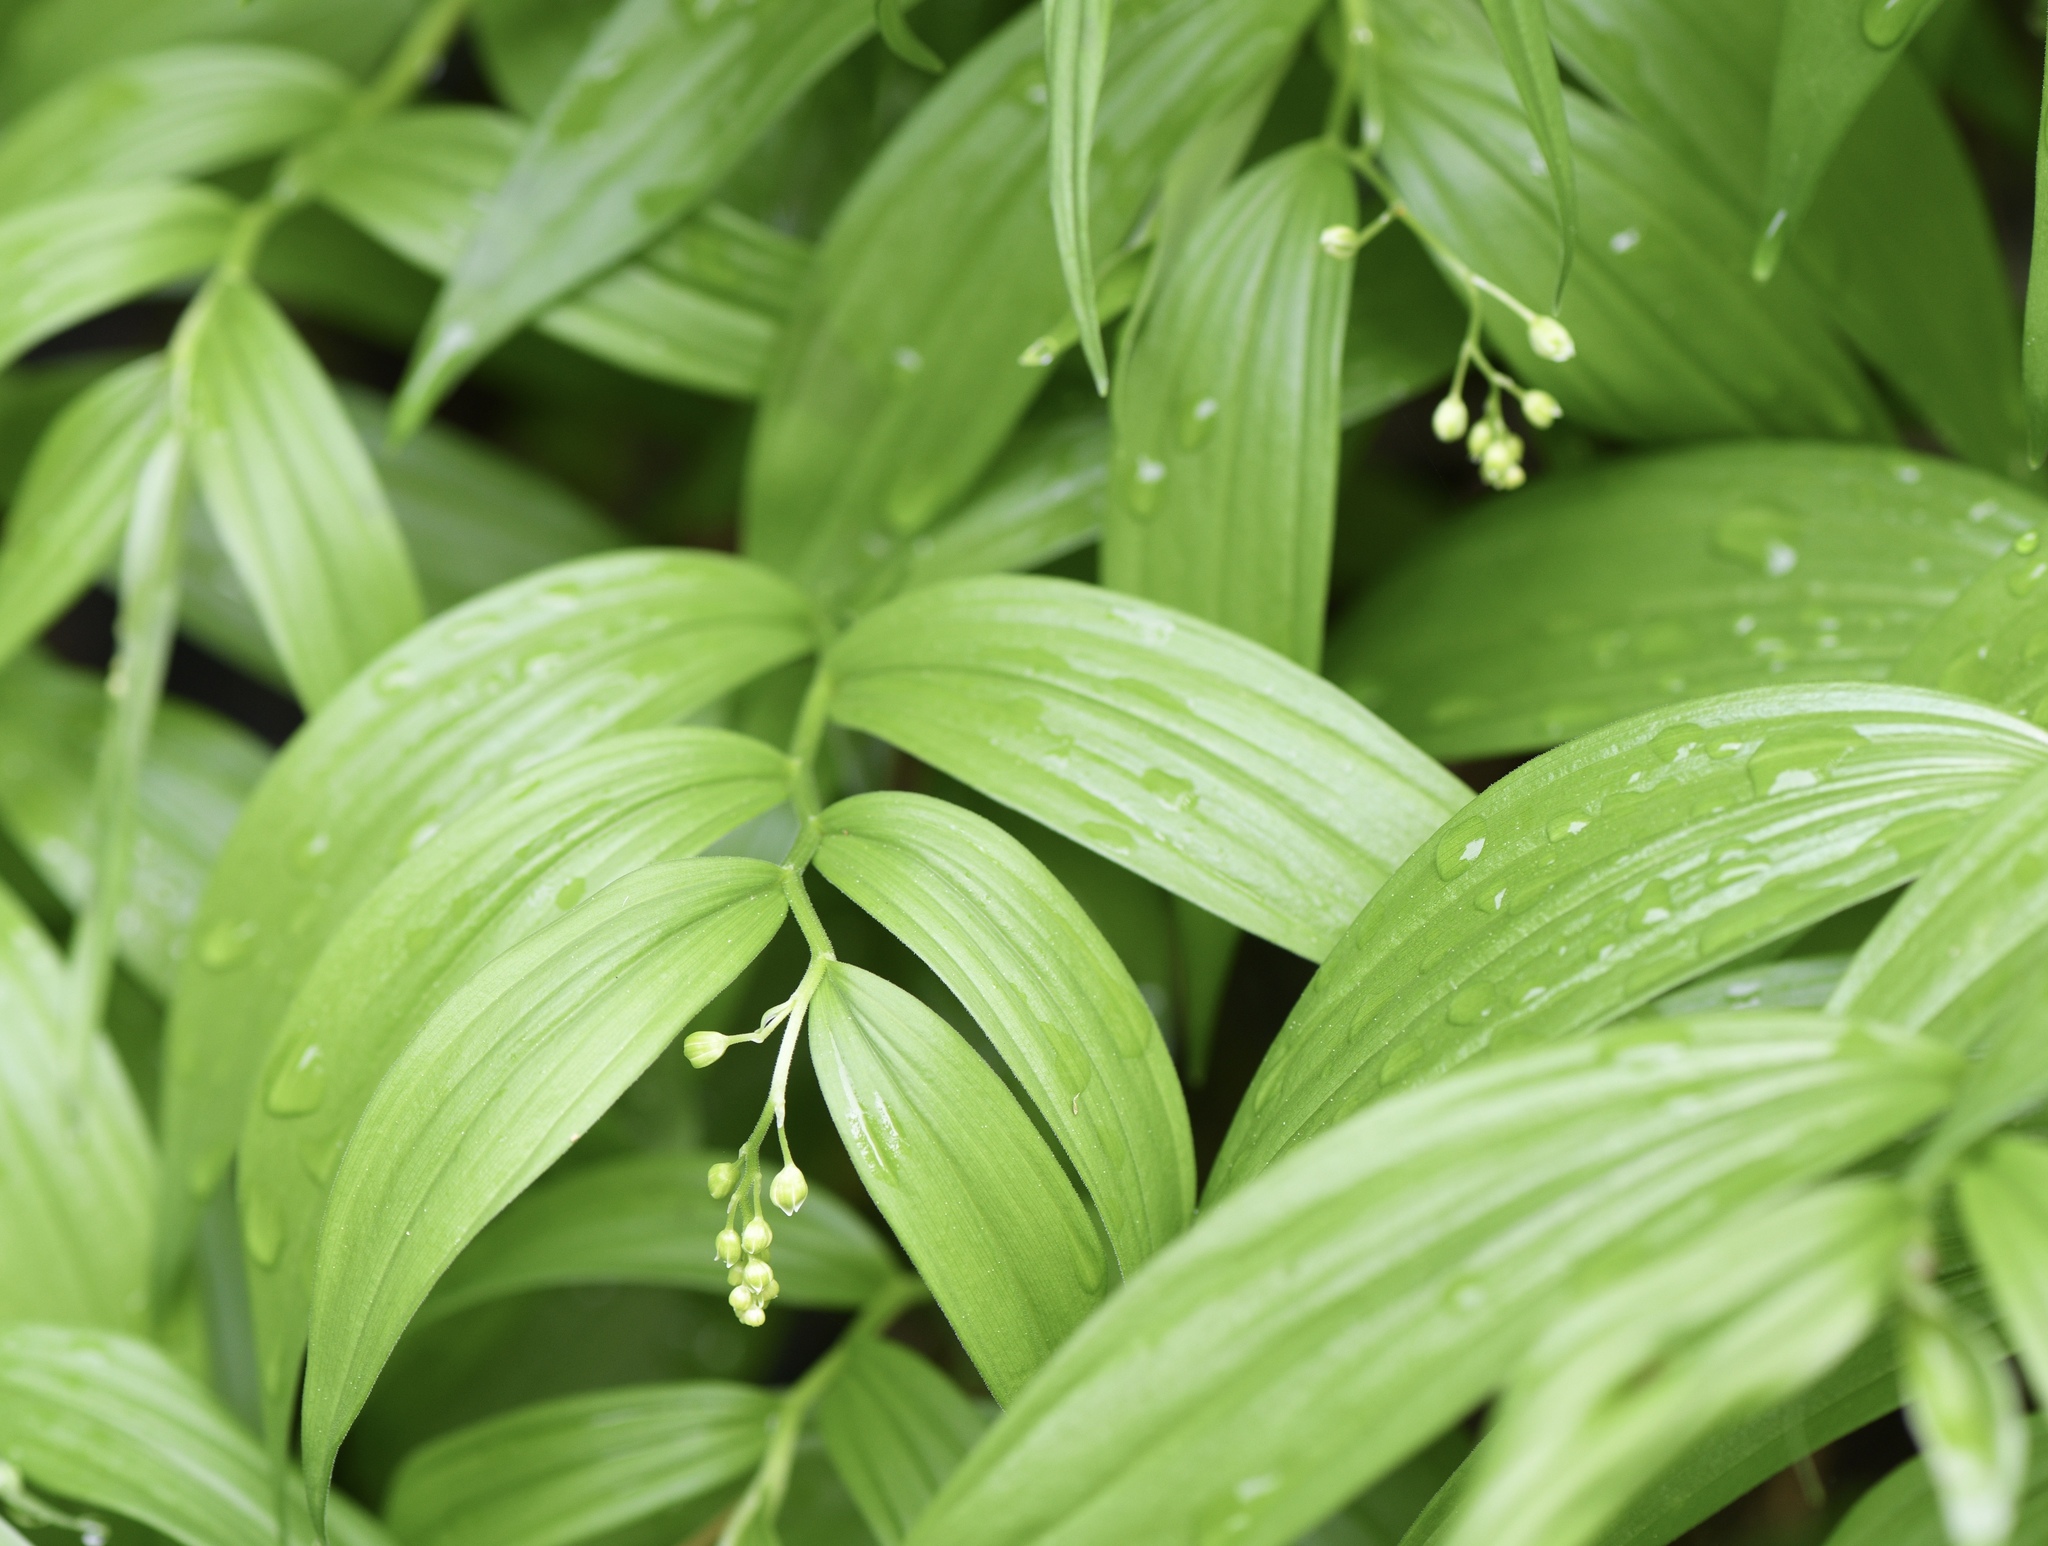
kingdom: Plantae
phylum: Tracheophyta
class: Liliopsida
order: Asparagales
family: Asparagaceae
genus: Maianthemum
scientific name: Maianthemum stellatum
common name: Little false solomon's seal
